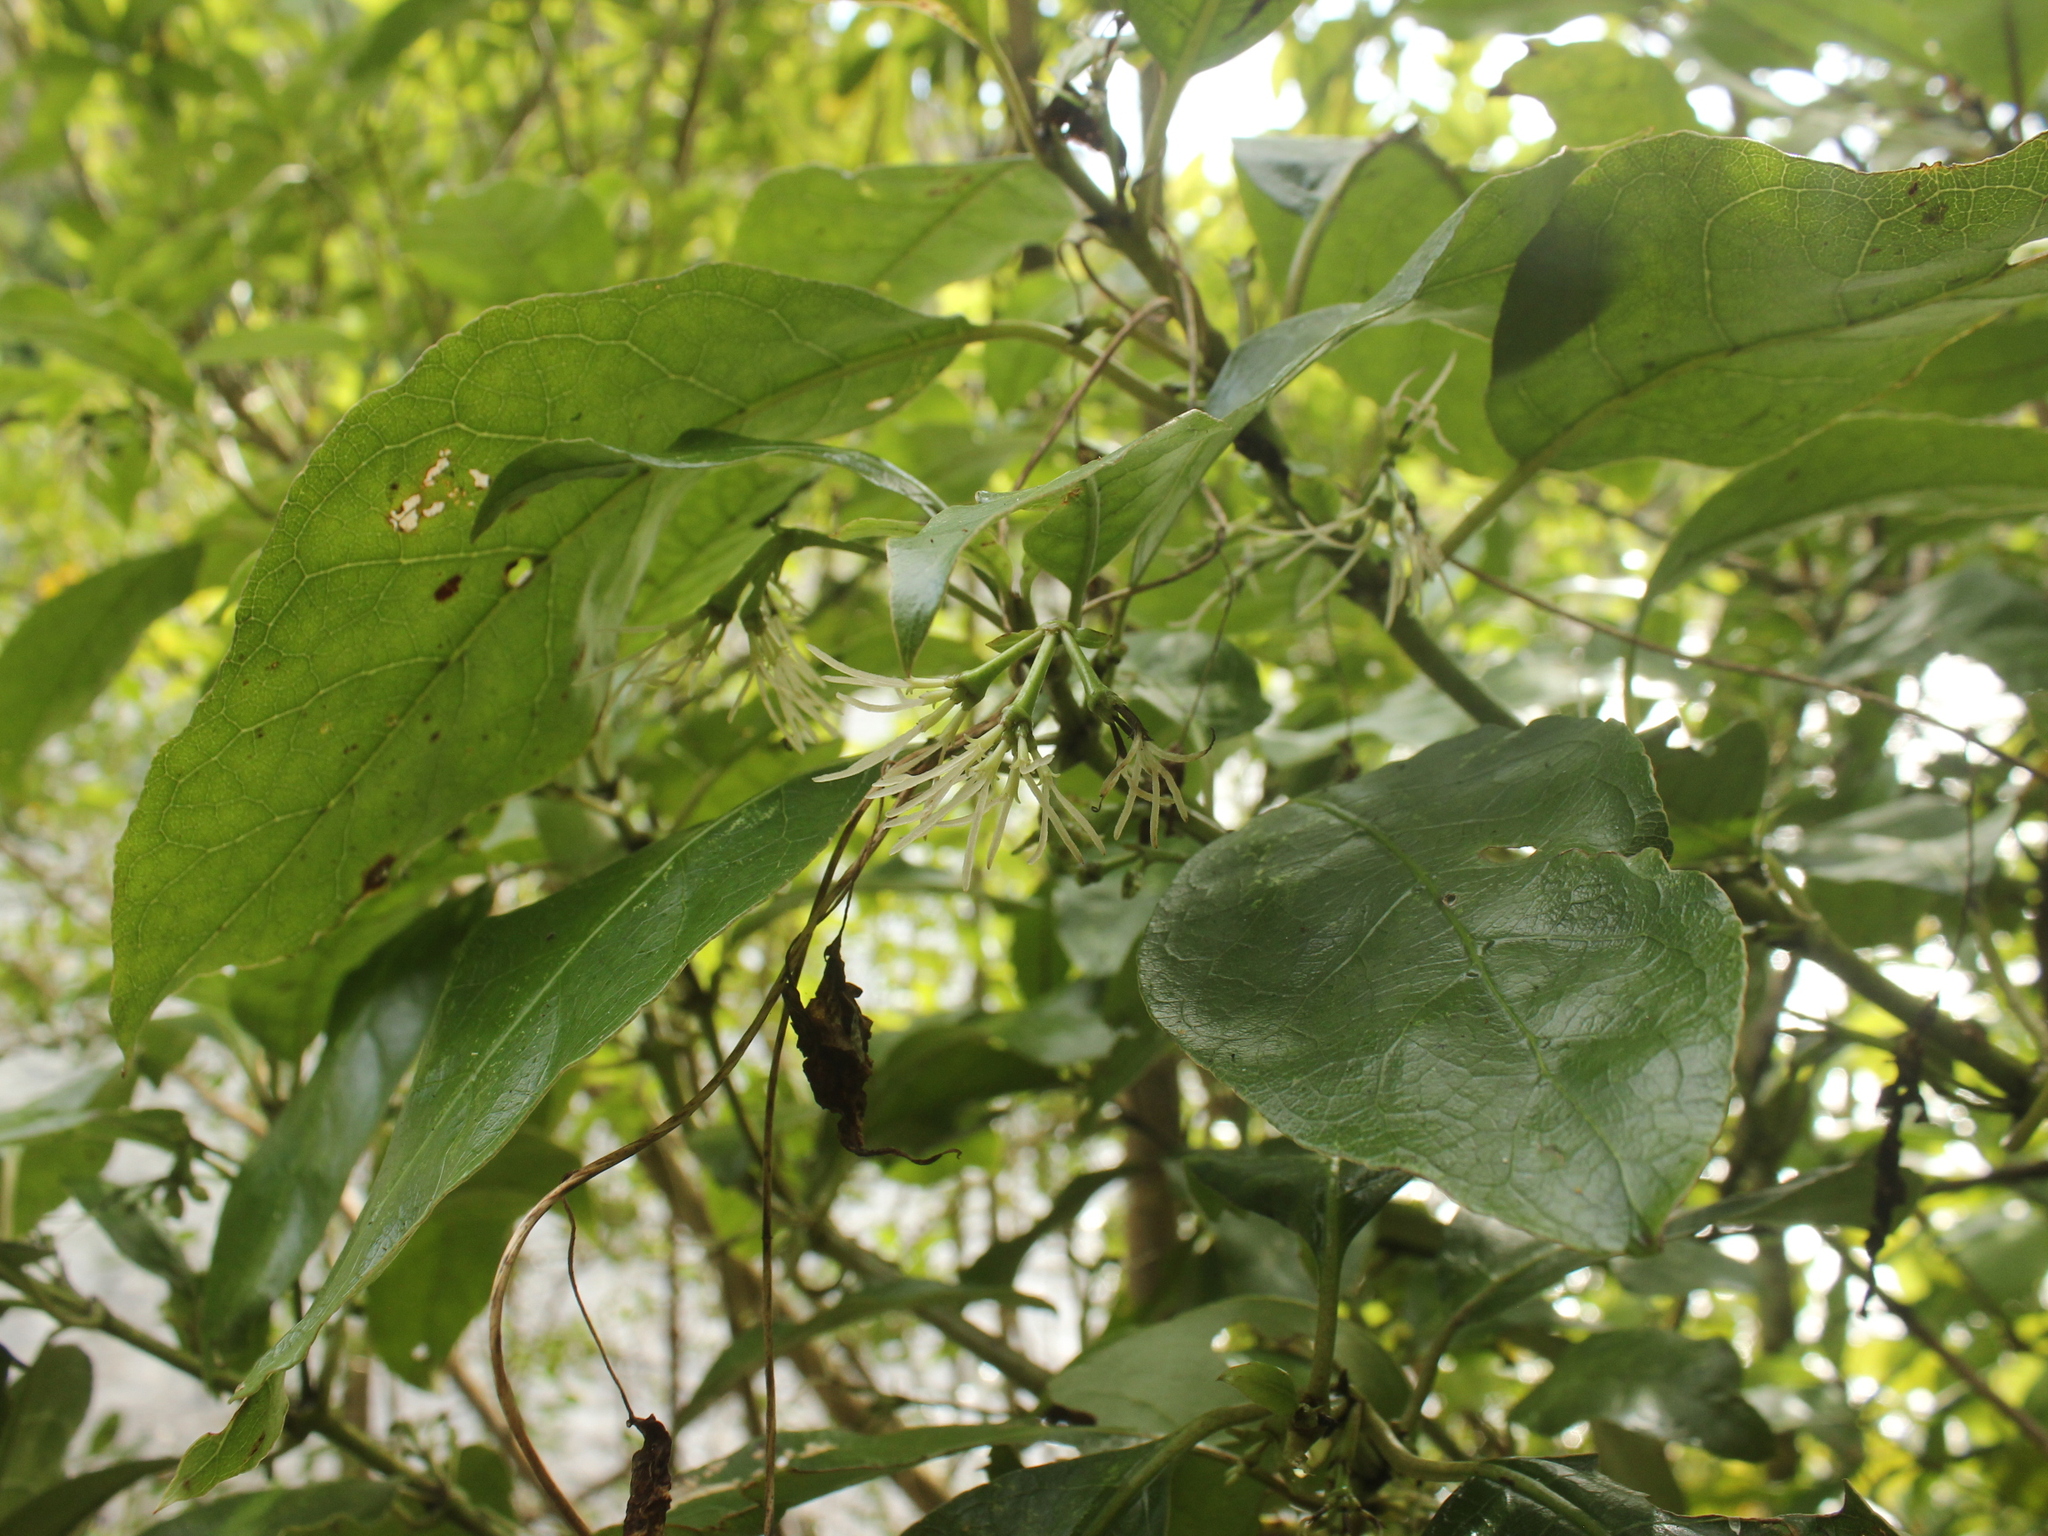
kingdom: Plantae
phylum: Tracheophyta
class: Magnoliopsida
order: Gentianales
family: Rubiaceae
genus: Coprosma
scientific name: Coprosma autumnalis
